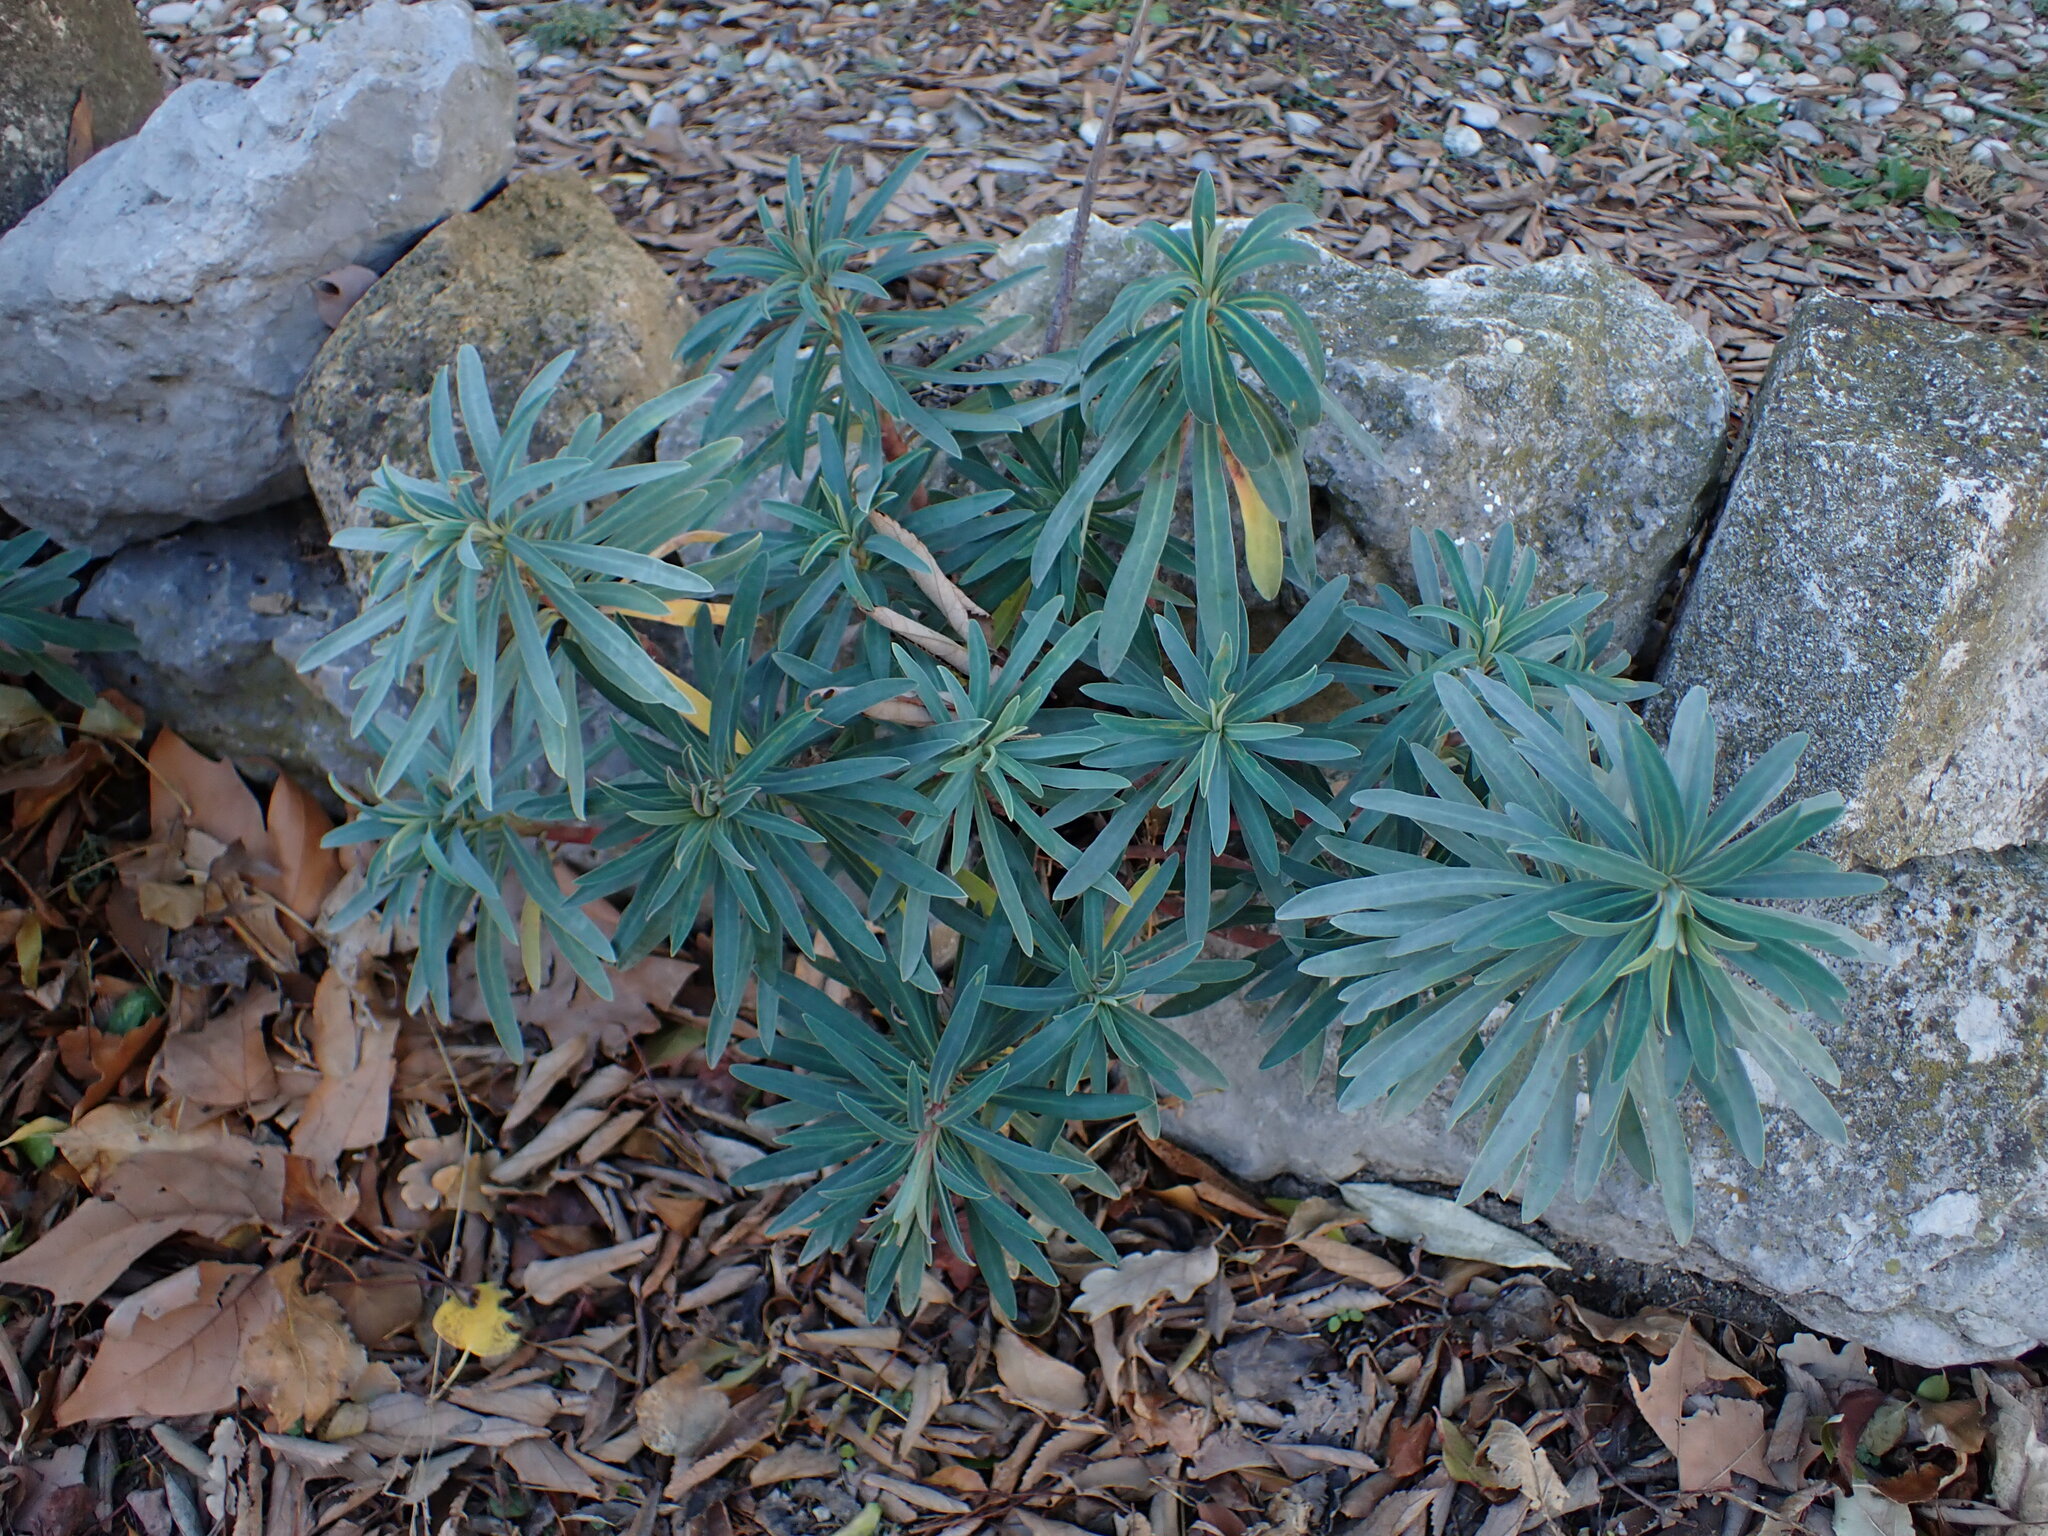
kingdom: Plantae
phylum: Tracheophyta
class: Magnoliopsida
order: Malpighiales
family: Euphorbiaceae
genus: Euphorbia
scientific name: Euphorbia characias
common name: Mediterranean spurge
